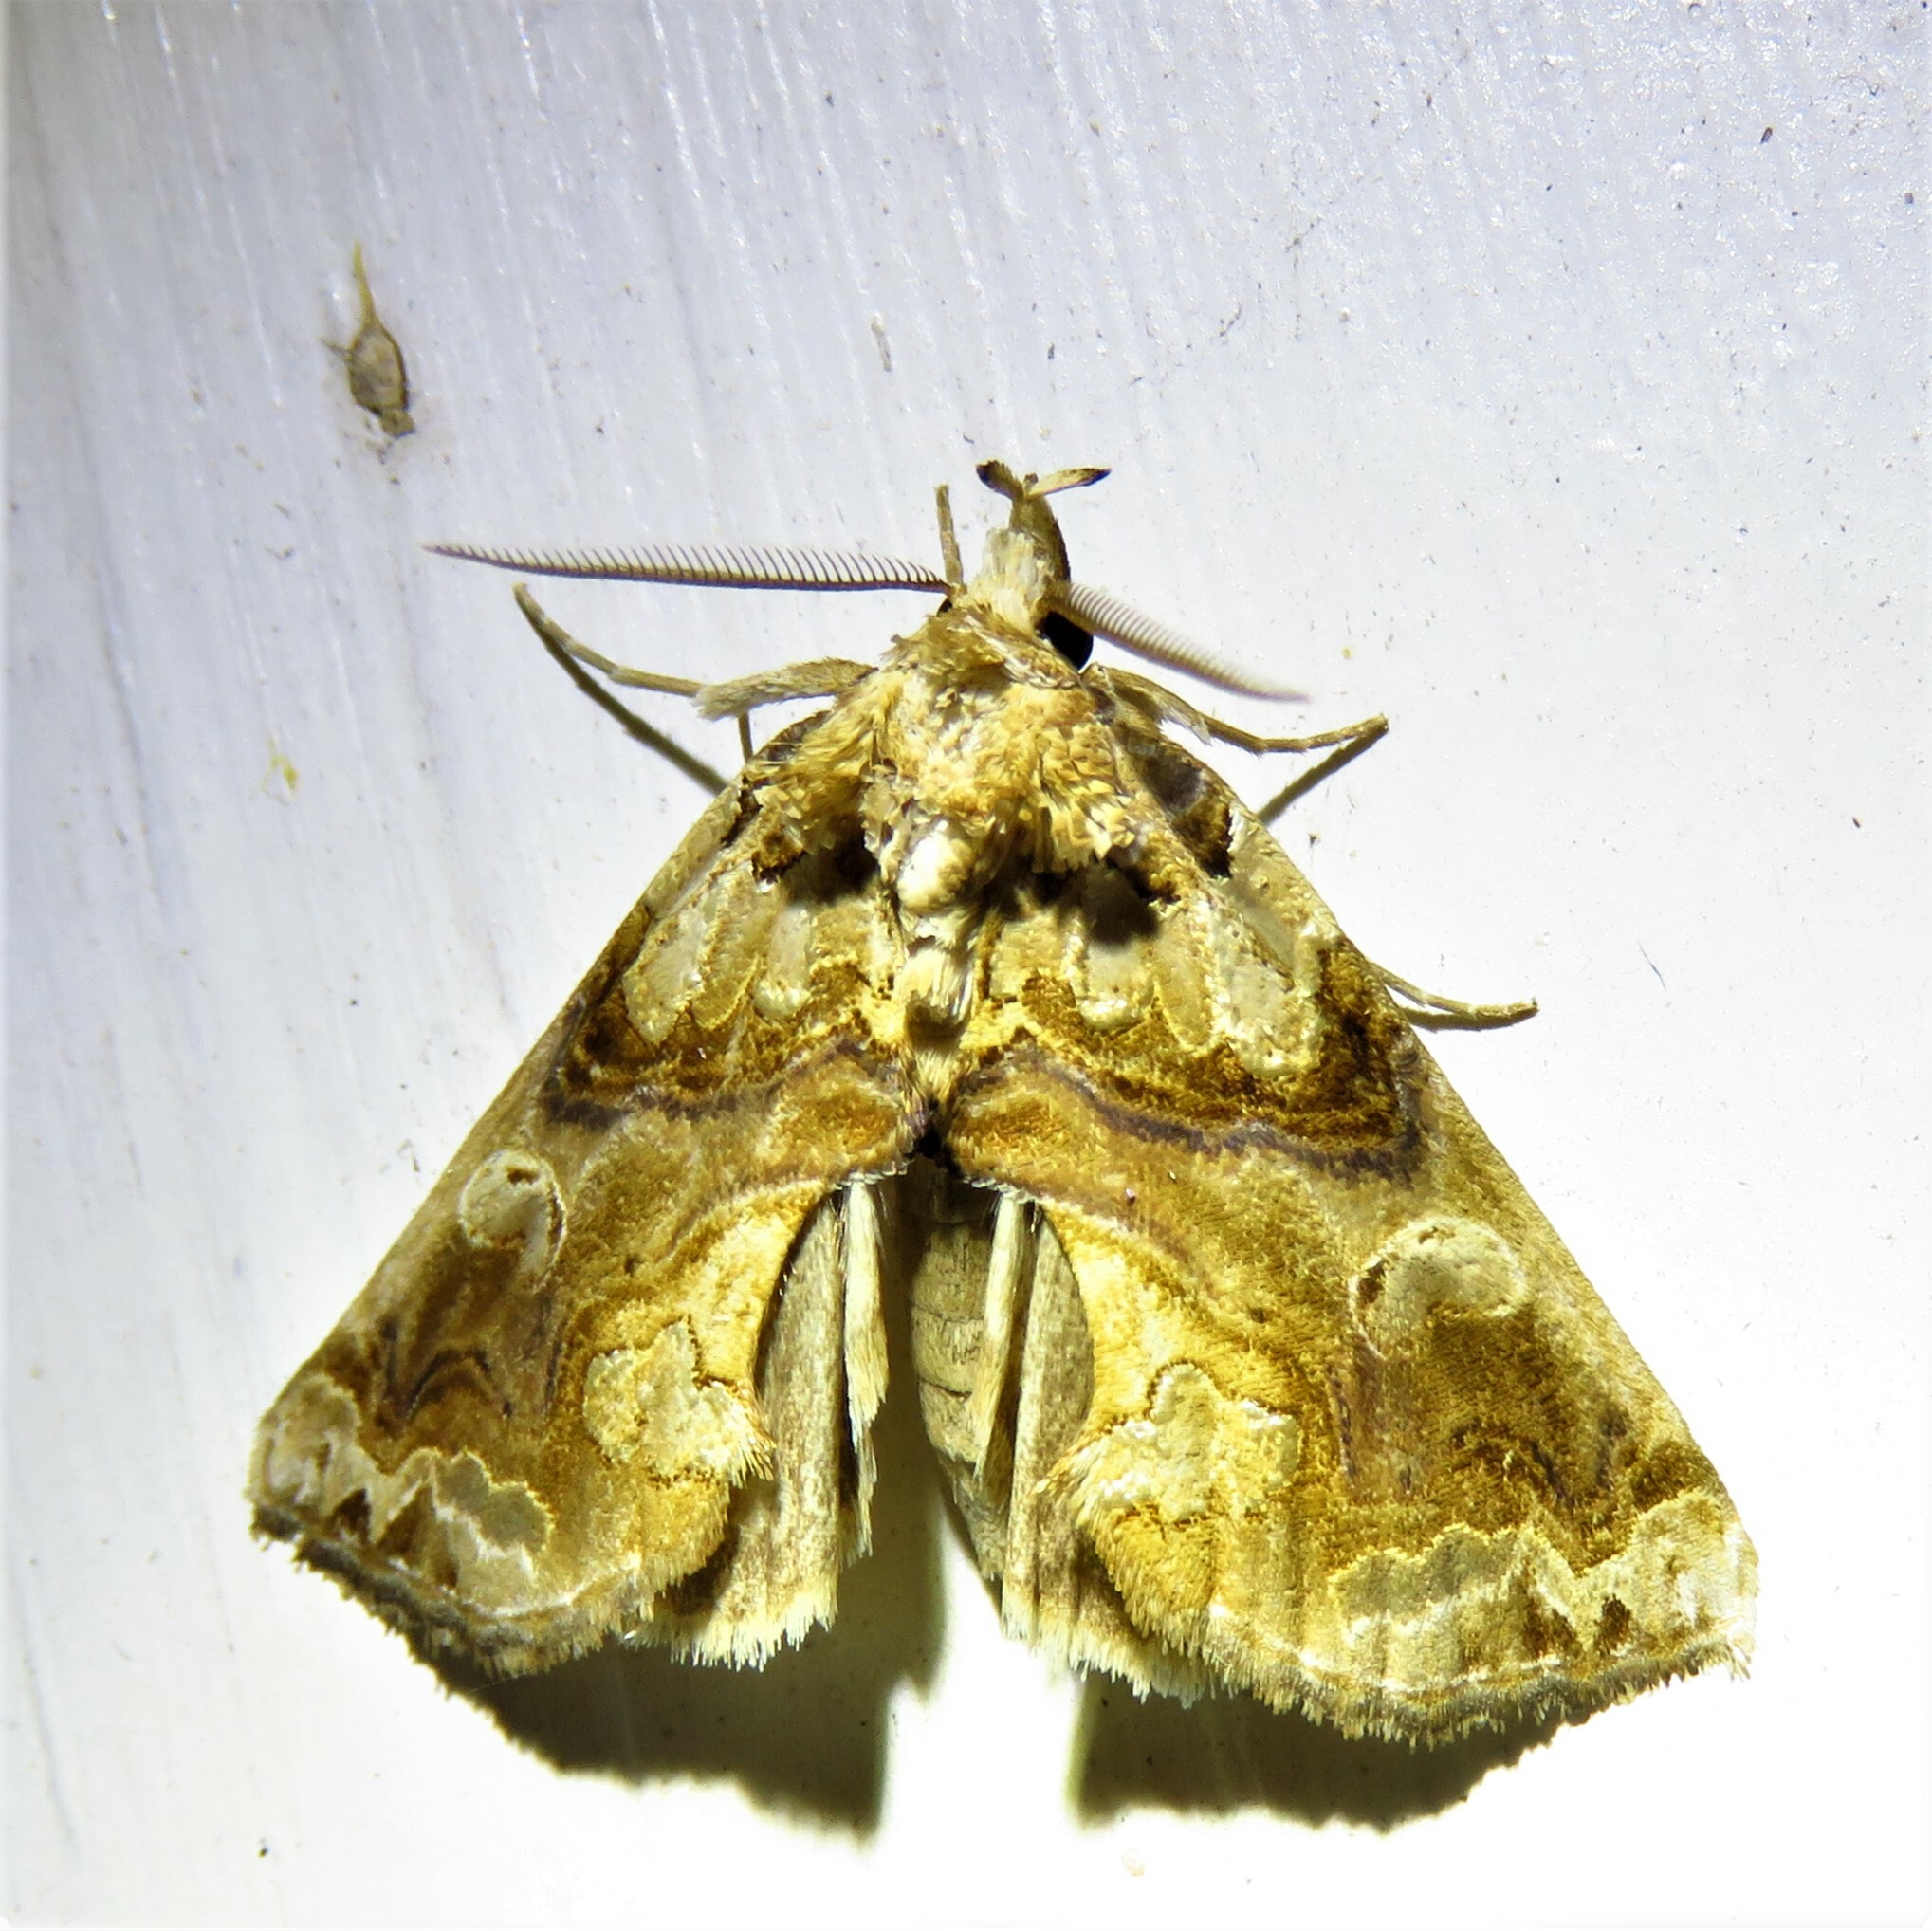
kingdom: Animalia
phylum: Arthropoda
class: Insecta
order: Lepidoptera
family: Erebidae
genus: Plusiodonta
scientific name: Plusiodonta compressipalpis
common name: Moonseed moth
